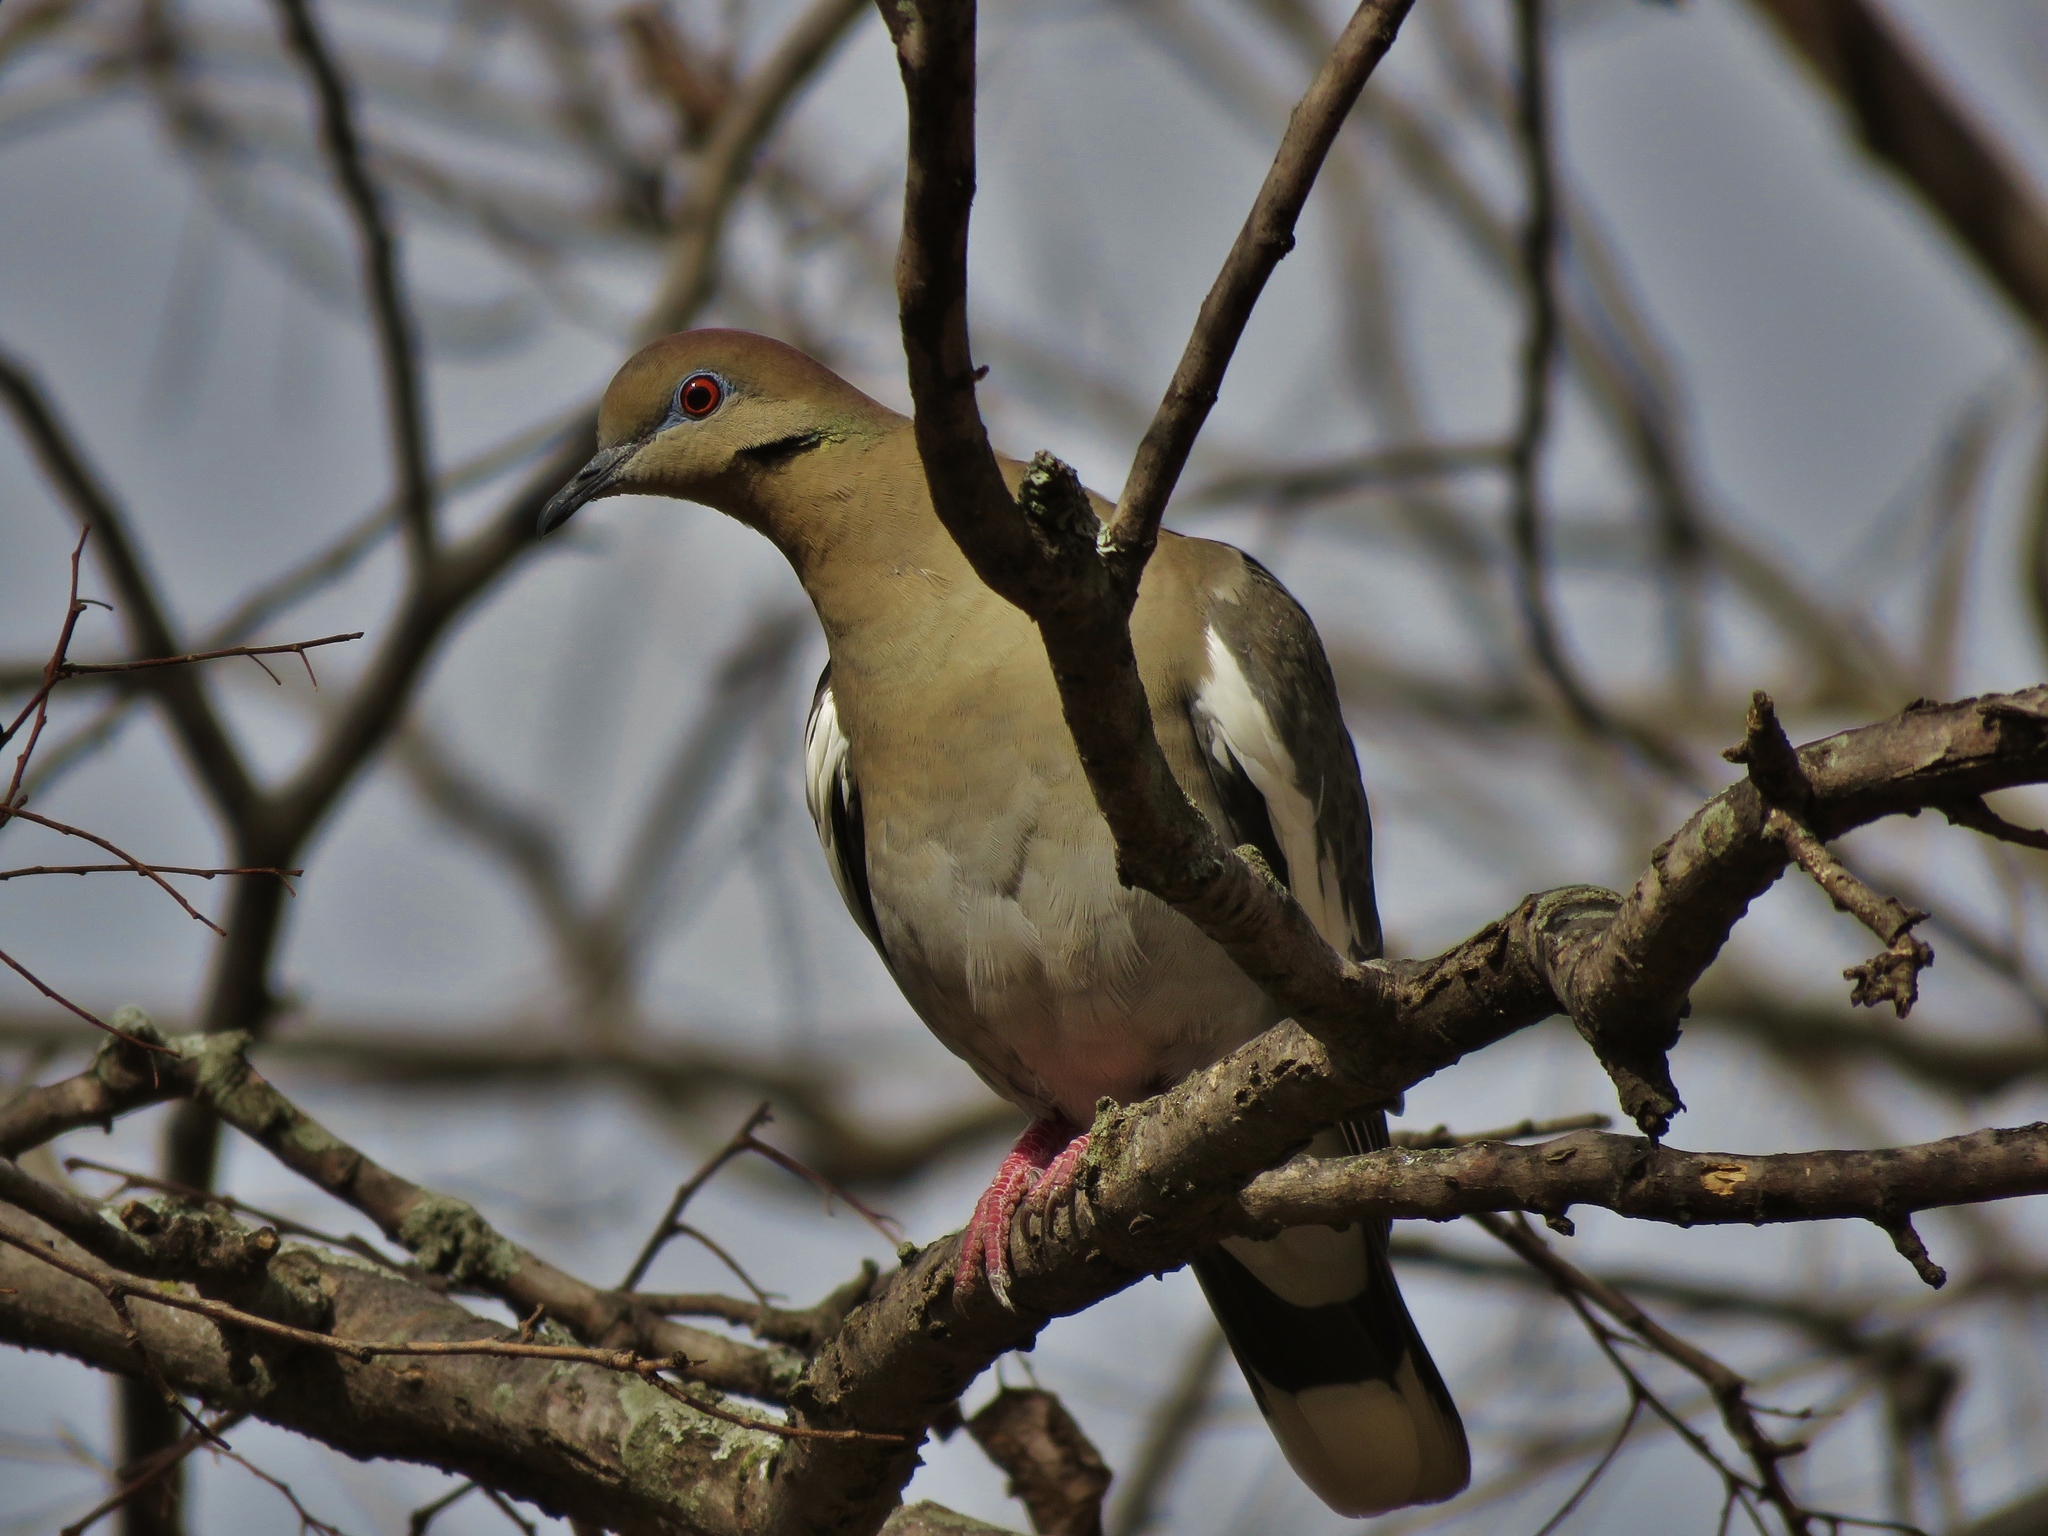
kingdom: Animalia
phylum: Chordata
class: Aves
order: Columbiformes
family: Columbidae
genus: Zenaida
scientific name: Zenaida asiatica
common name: White-winged dove
